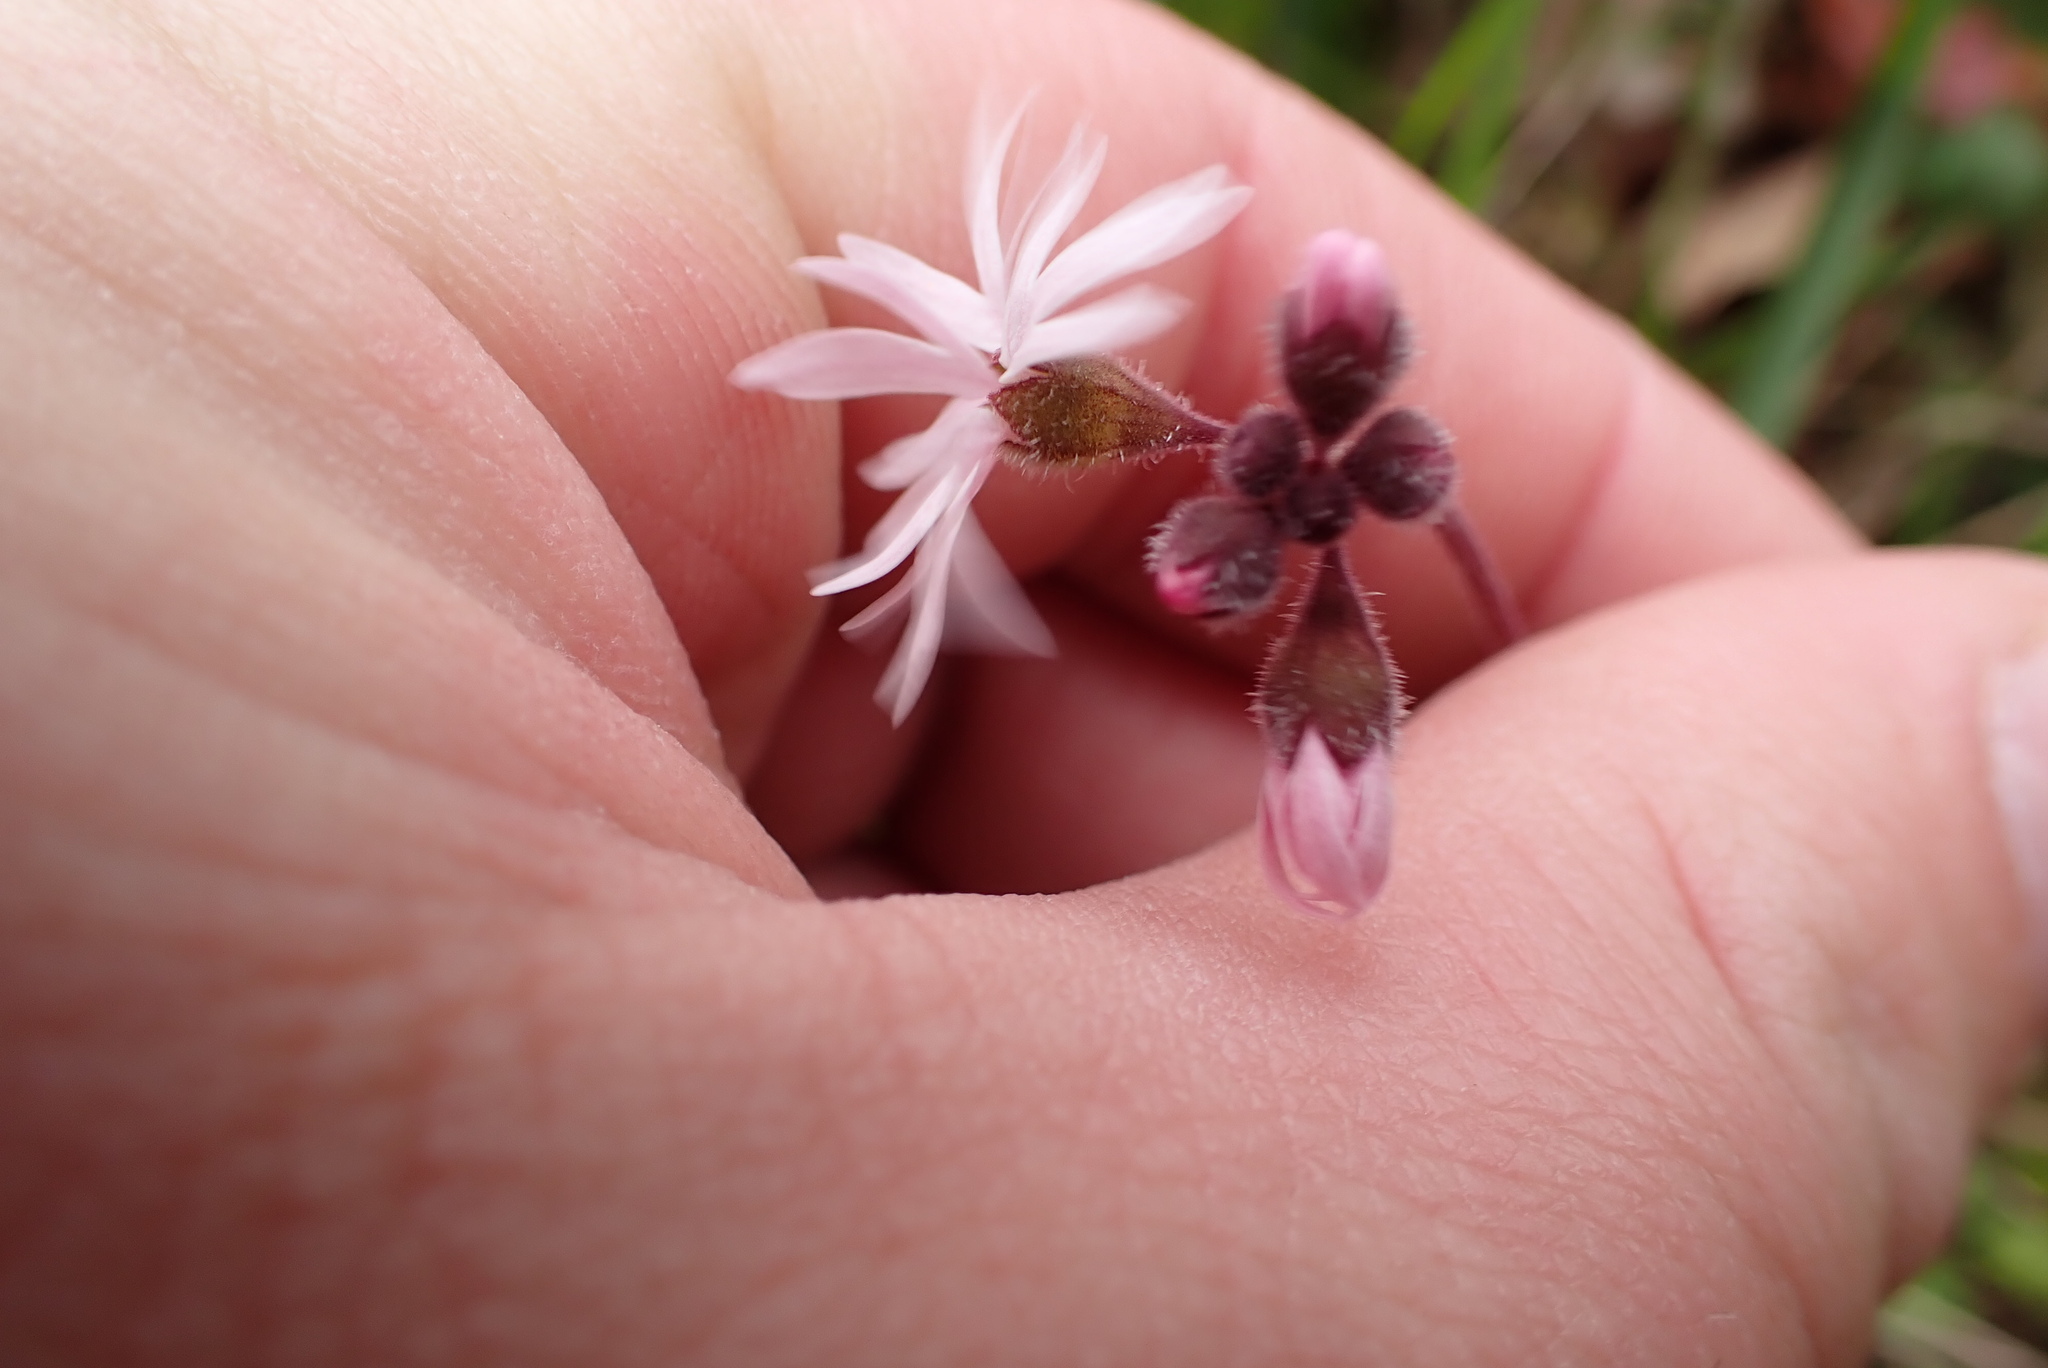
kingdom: Plantae
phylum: Tracheophyta
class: Magnoliopsida
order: Saxifragales
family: Saxifragaceae
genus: Lithophragma
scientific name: Lithophragma parviflorum
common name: Small-flowered fringe-cup
